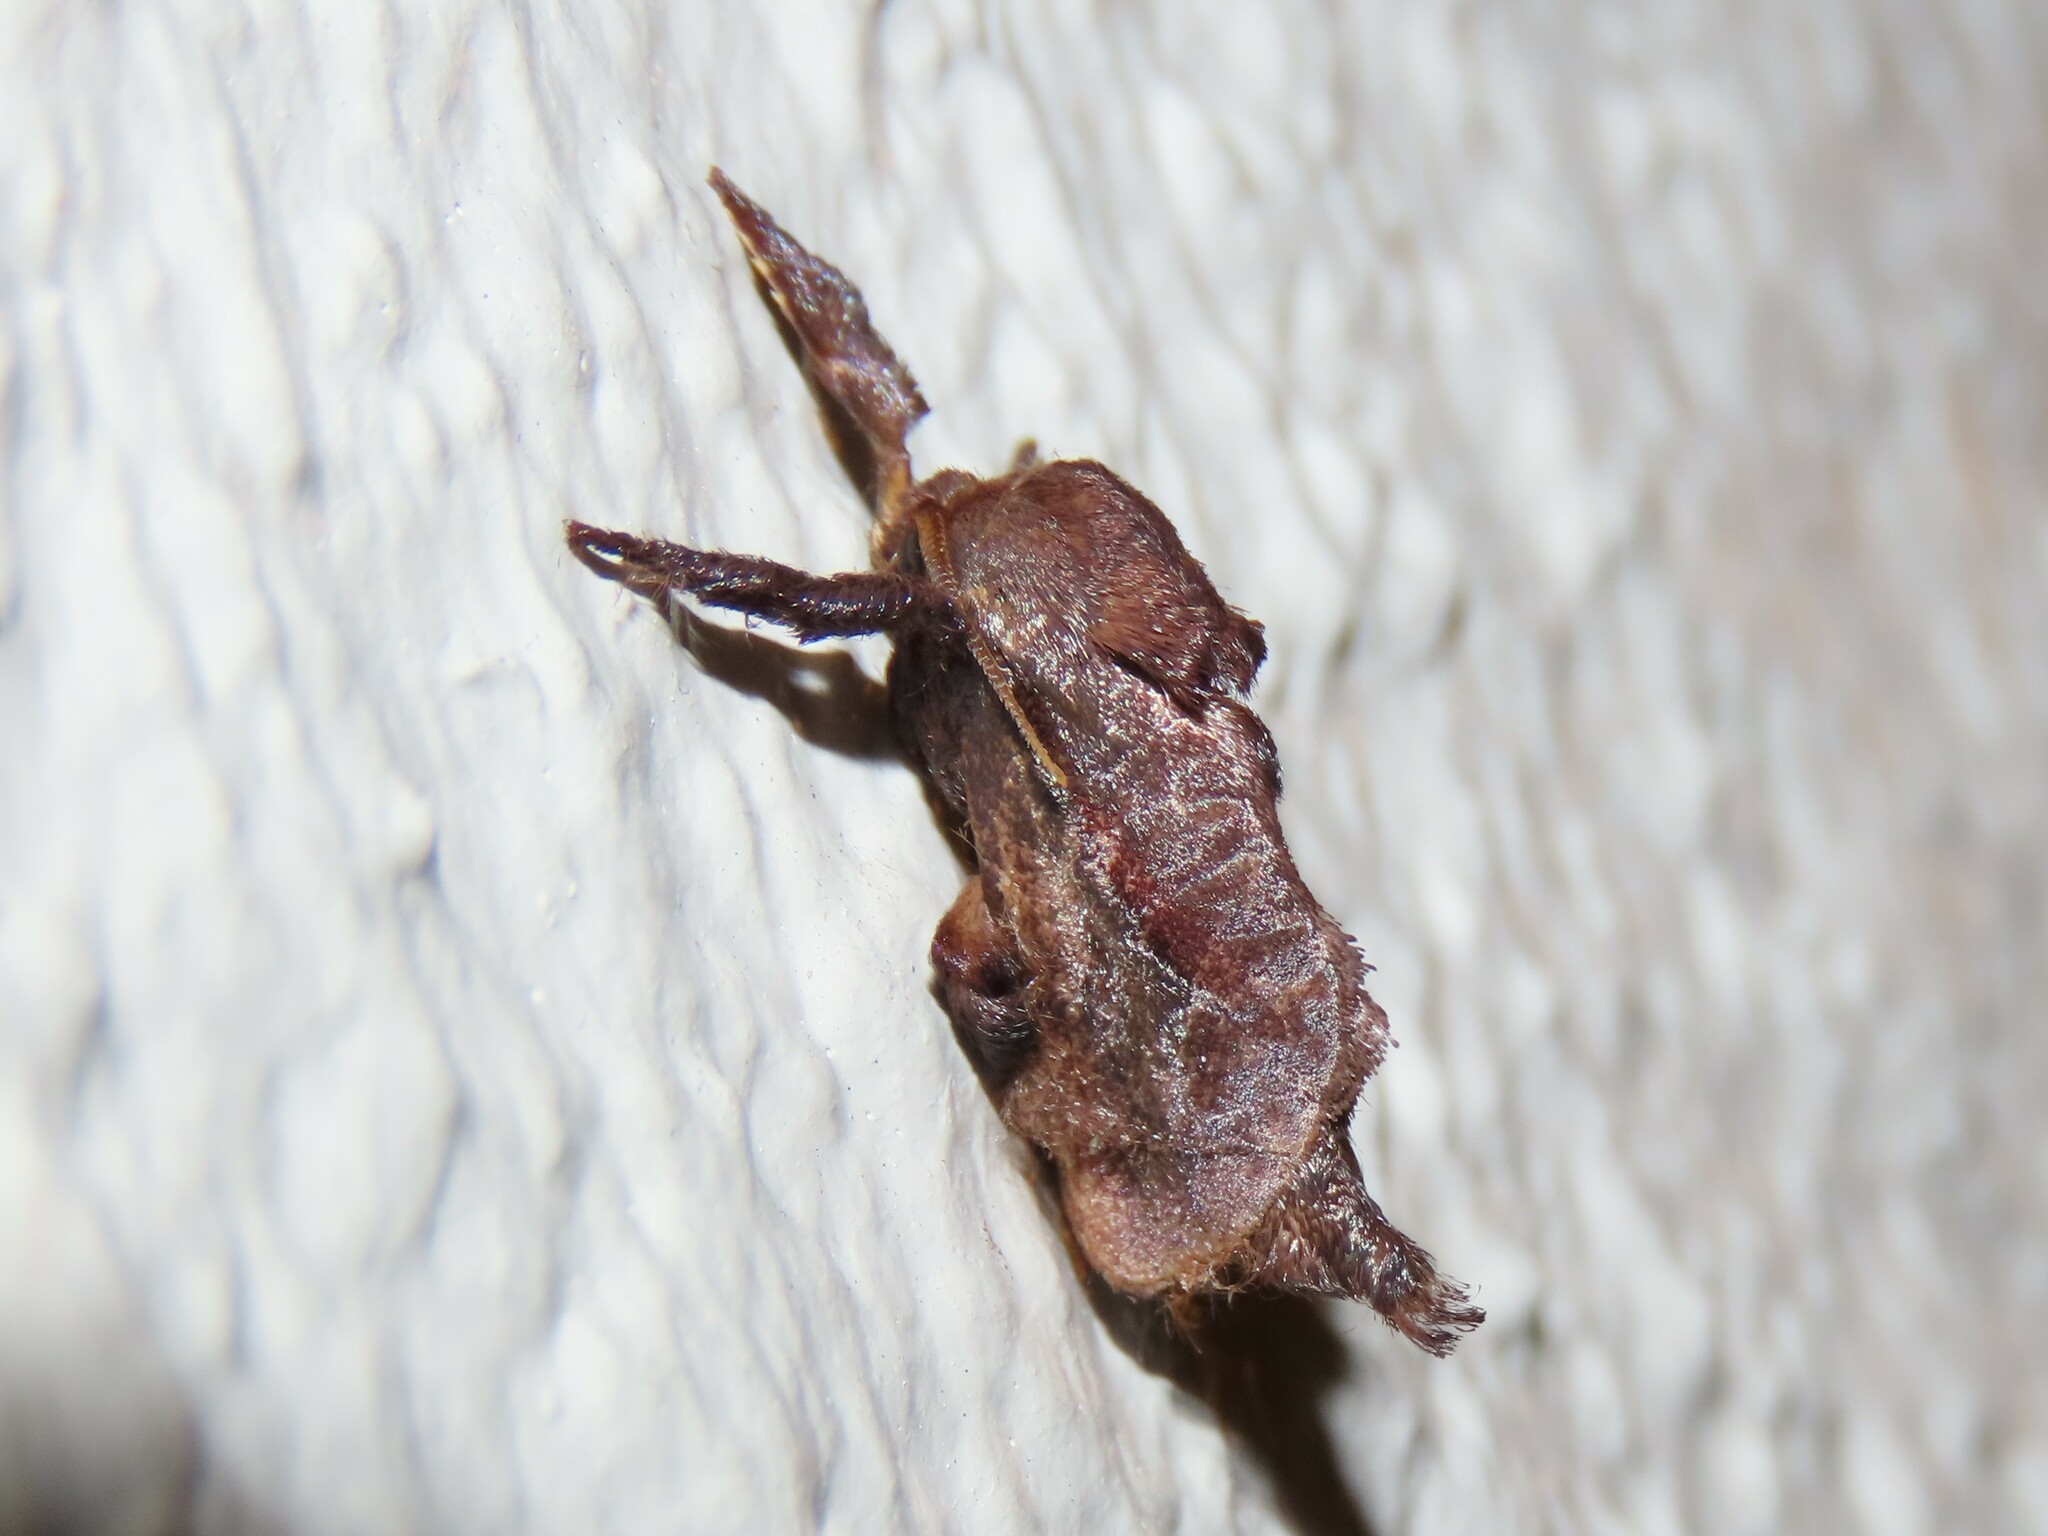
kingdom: Animalia
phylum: Arthropoda
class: Insecta
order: Lepidoptera
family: Limacodidae
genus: Acharia
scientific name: Acharia stimulea
